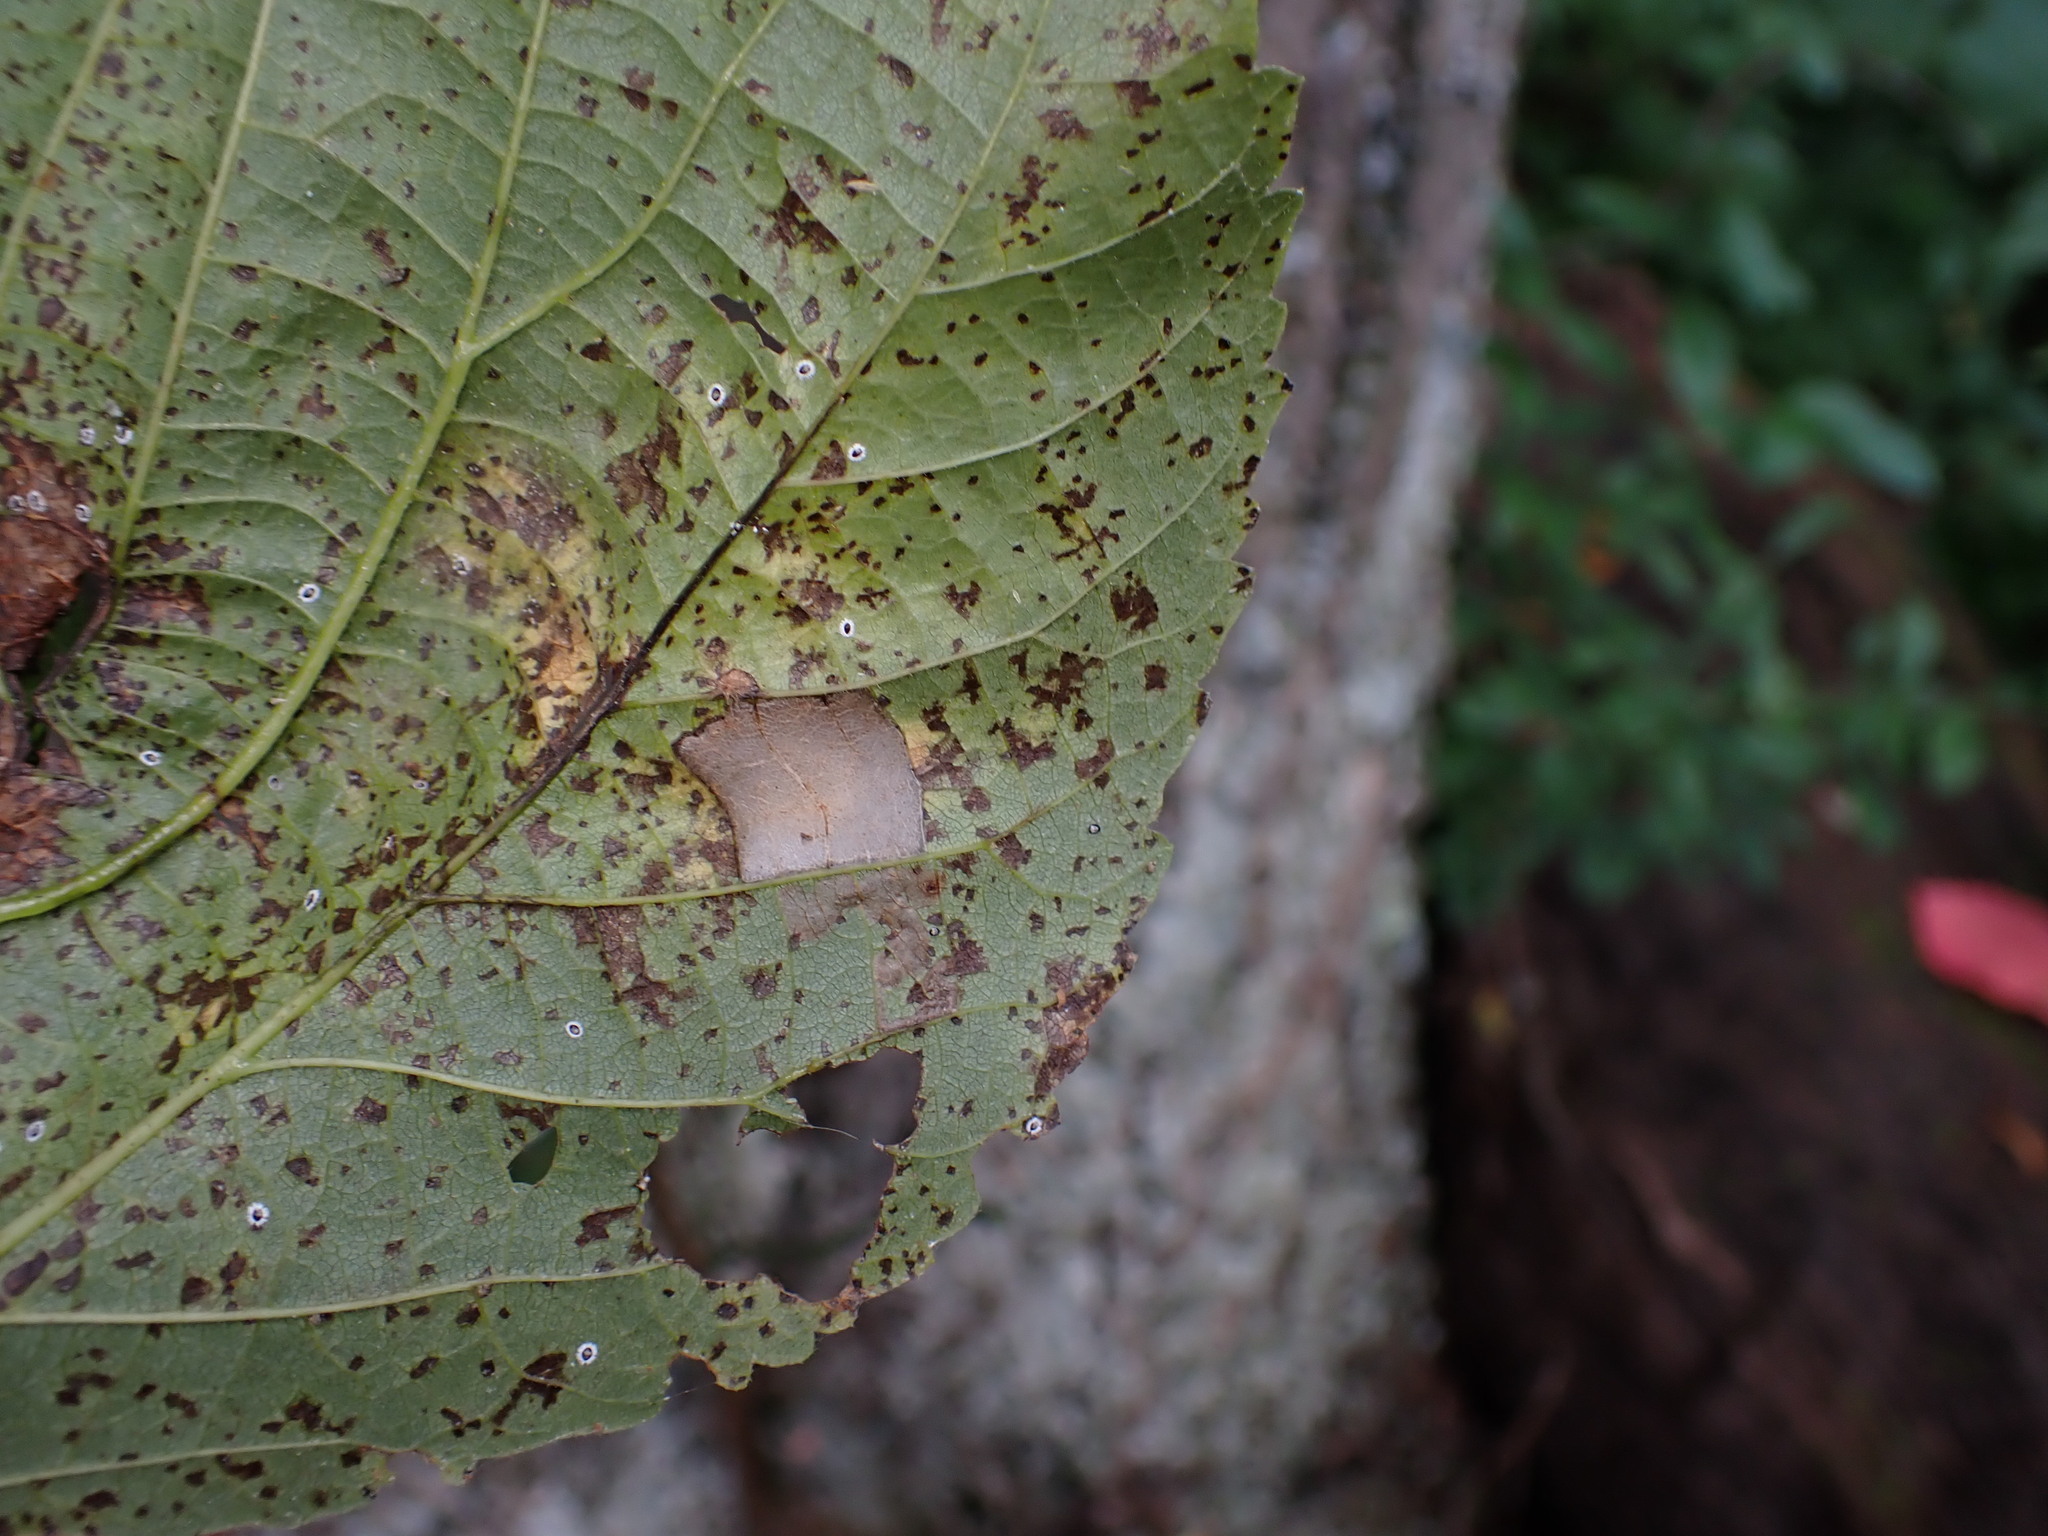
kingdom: Animalia
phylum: Arthropoda
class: Insecta
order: Lepidoptera
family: Gracillariidae
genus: Phyllonorycter
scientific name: Phyllonorycter lucetiella
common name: Basswood miner moth
